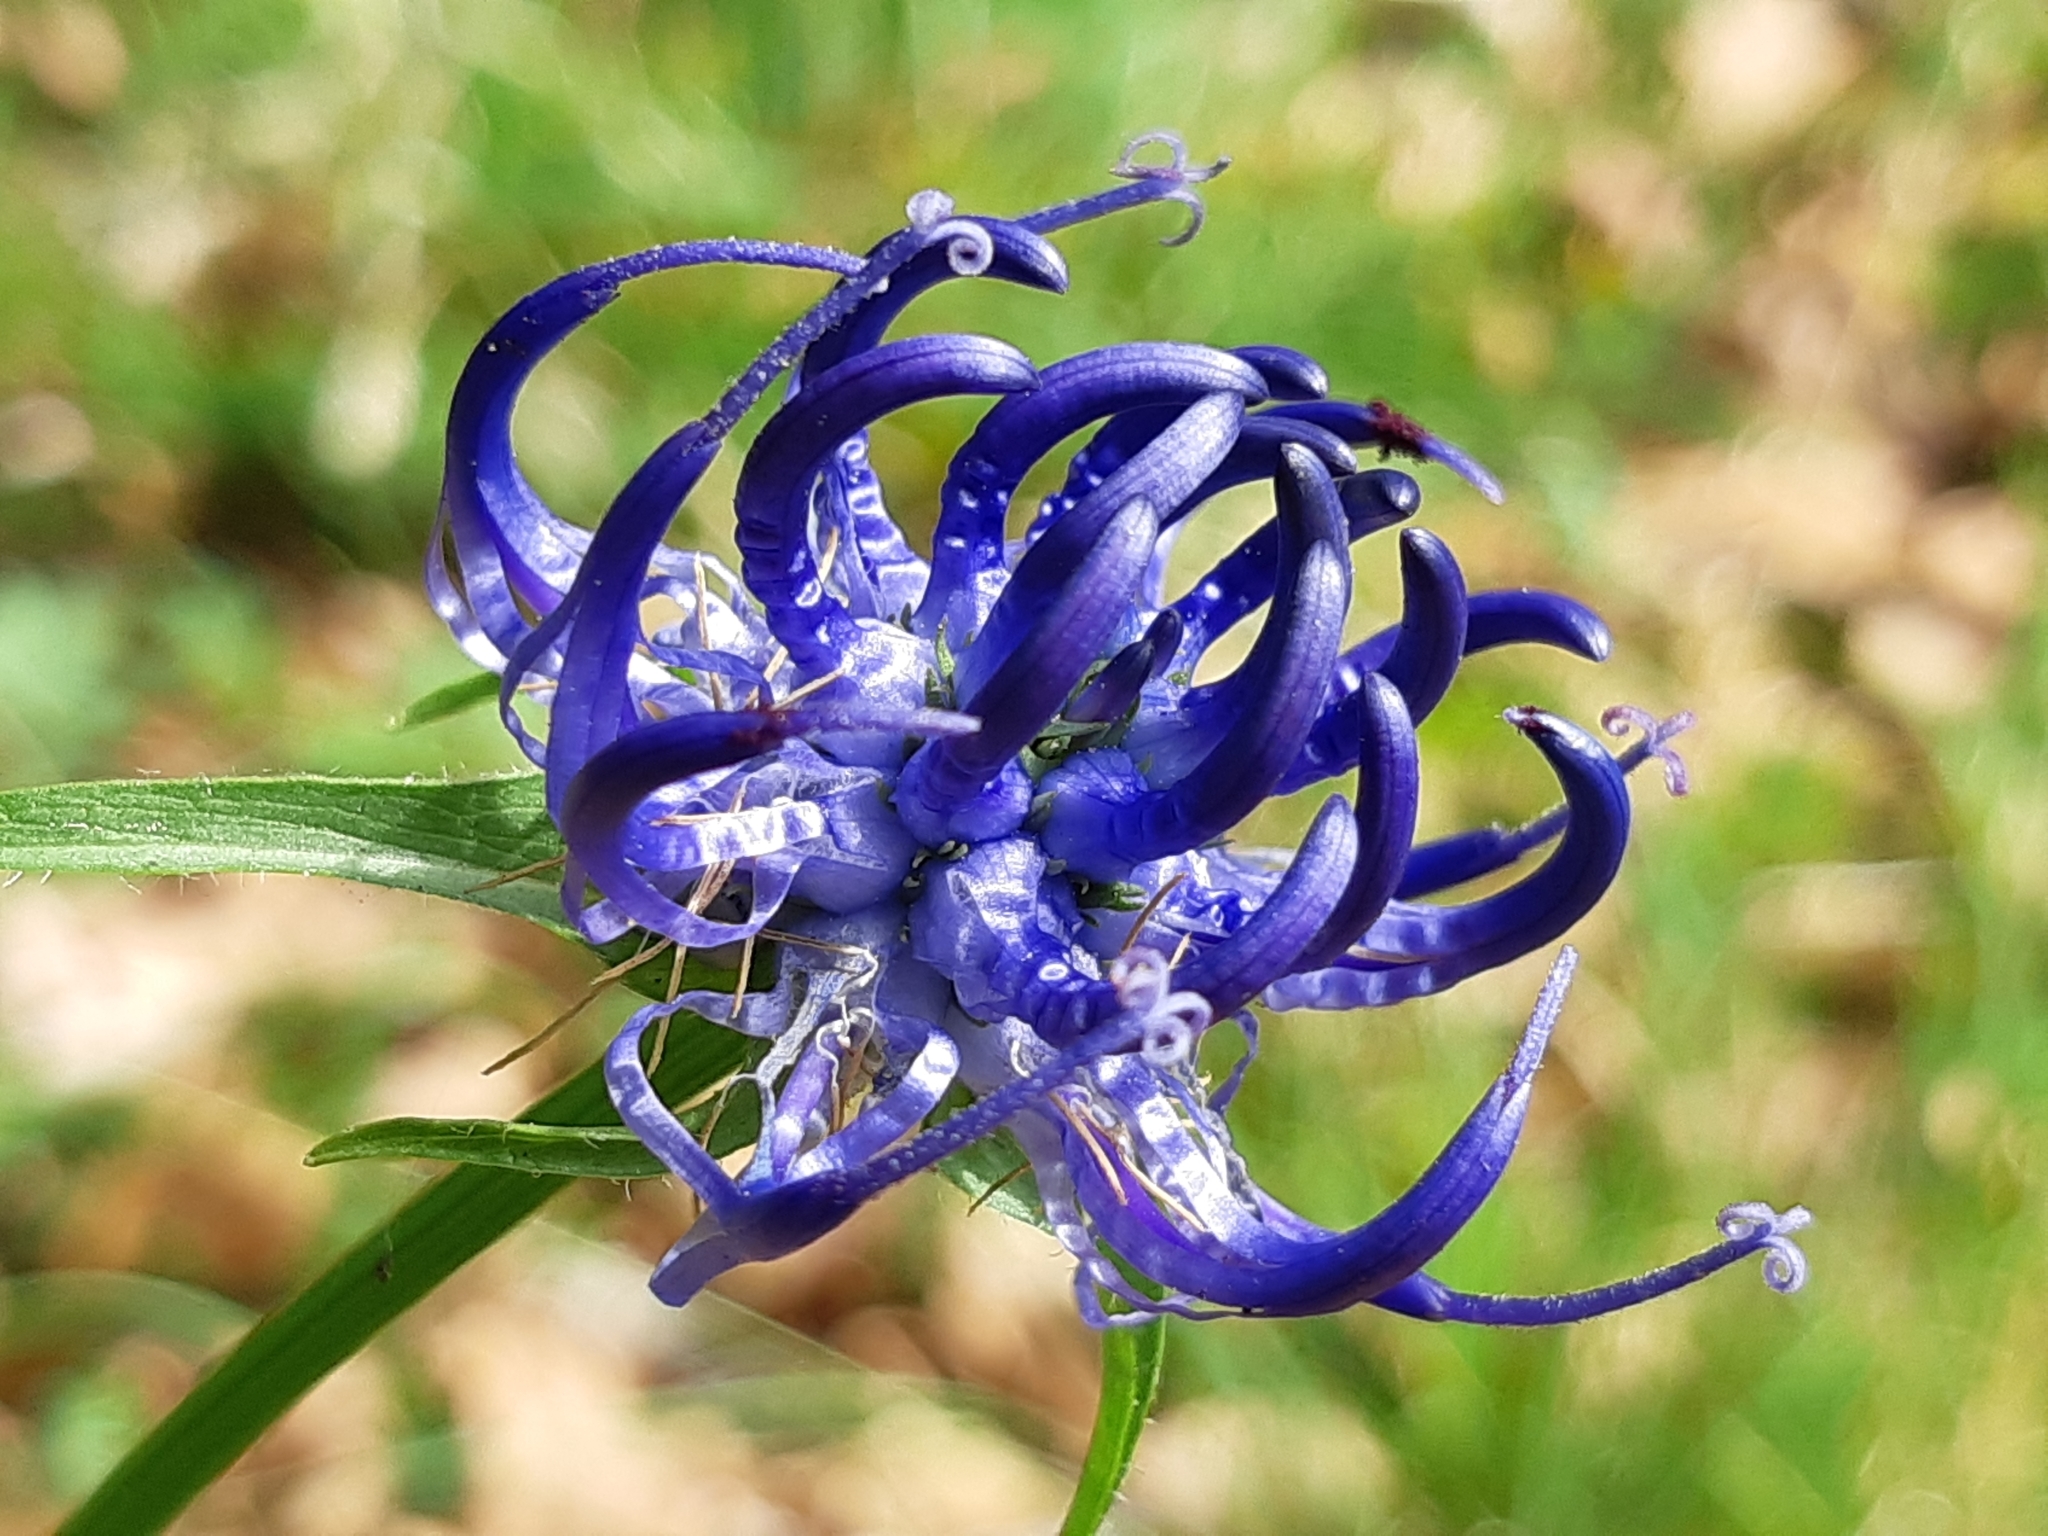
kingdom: Plantae
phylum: Tracheophyta
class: Magnoliopsida
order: Asterales
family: Campanulaceae
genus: Phyteuma
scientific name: Phyteuma orbiculare
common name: Round-headed rampion
